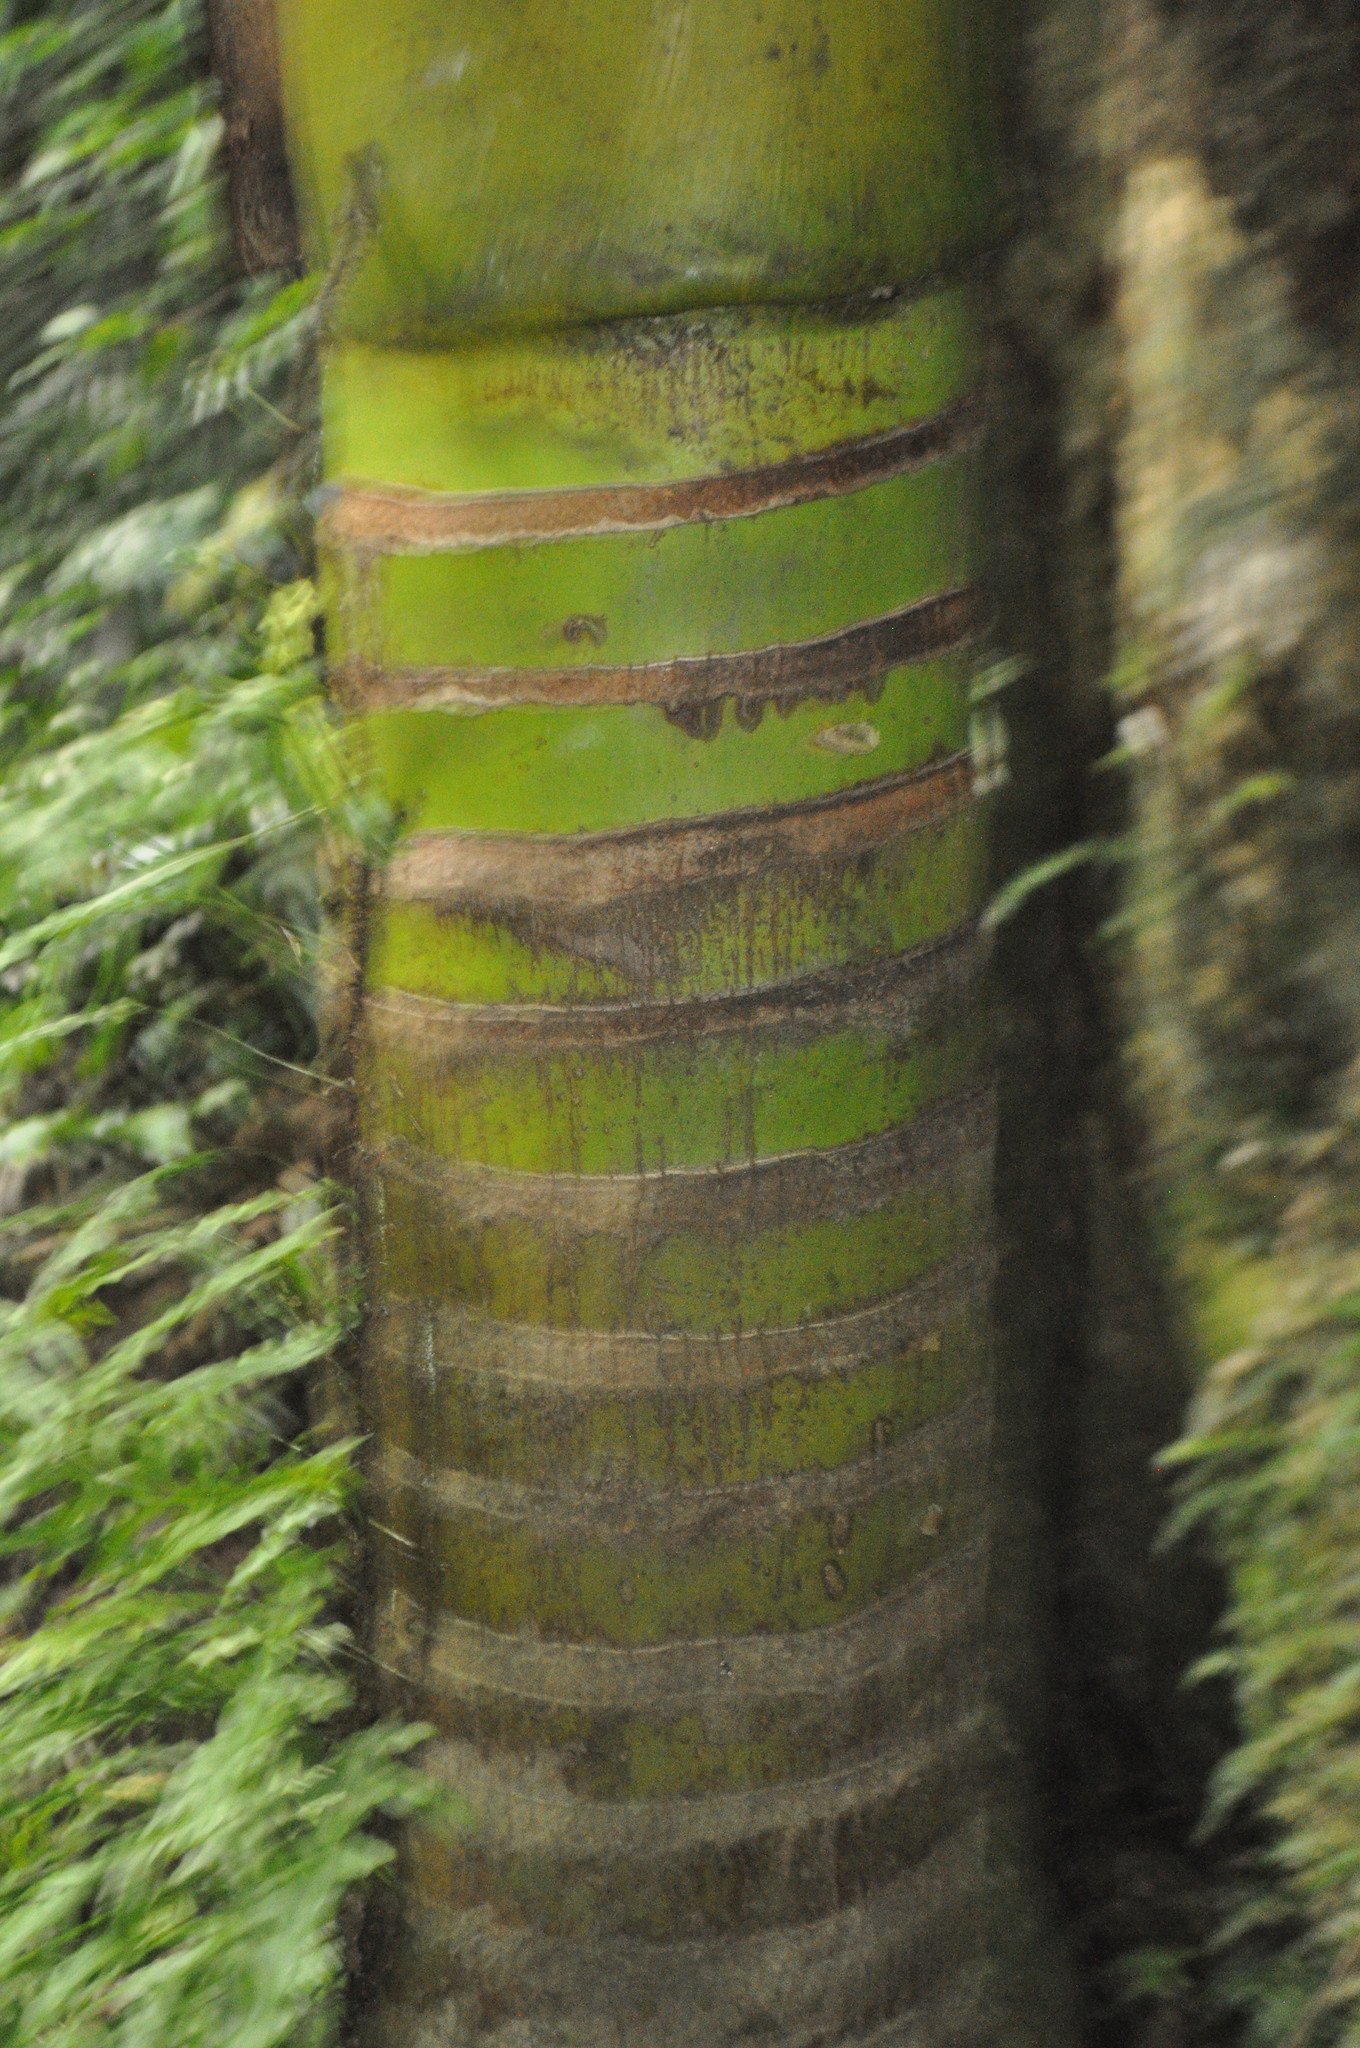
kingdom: Plantae
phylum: Tracheophyta
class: Liliopsida
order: Arecales
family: Arecaceae
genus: Rhopalostylis
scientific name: Rhopalostylis sapida
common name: Feather-duster palm
